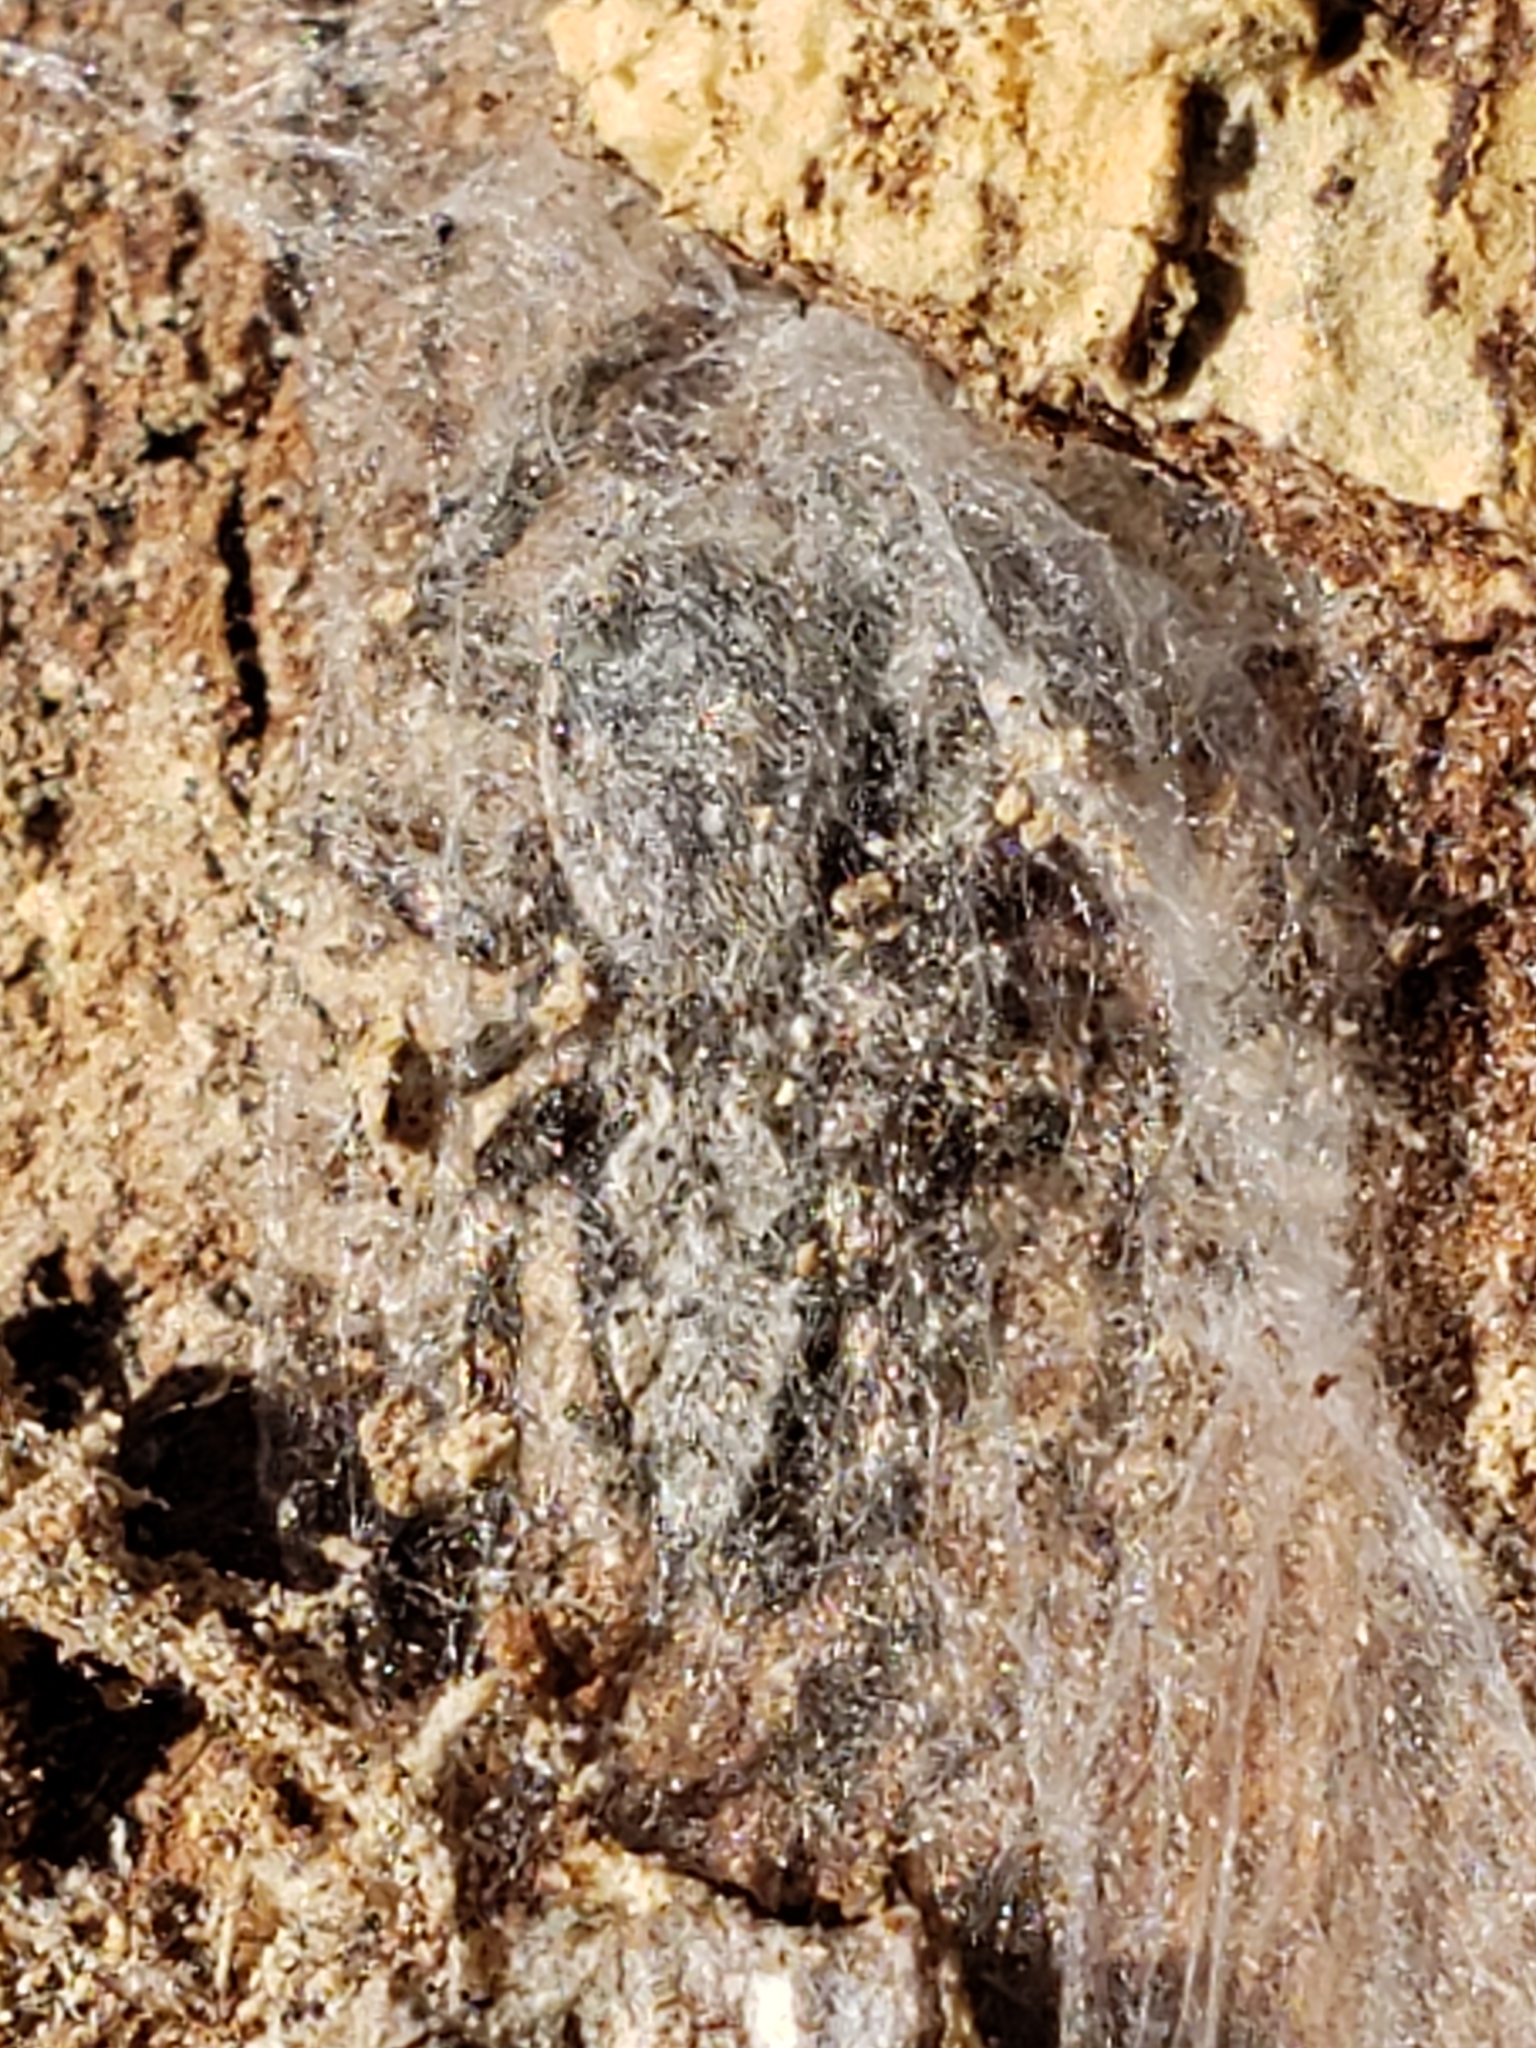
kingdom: Animalia
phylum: Arthropoda
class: Arachnida
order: Araneae
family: Salticidae
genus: Platycryptus
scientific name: Platycryptus undatus
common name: Tan jumping spider
